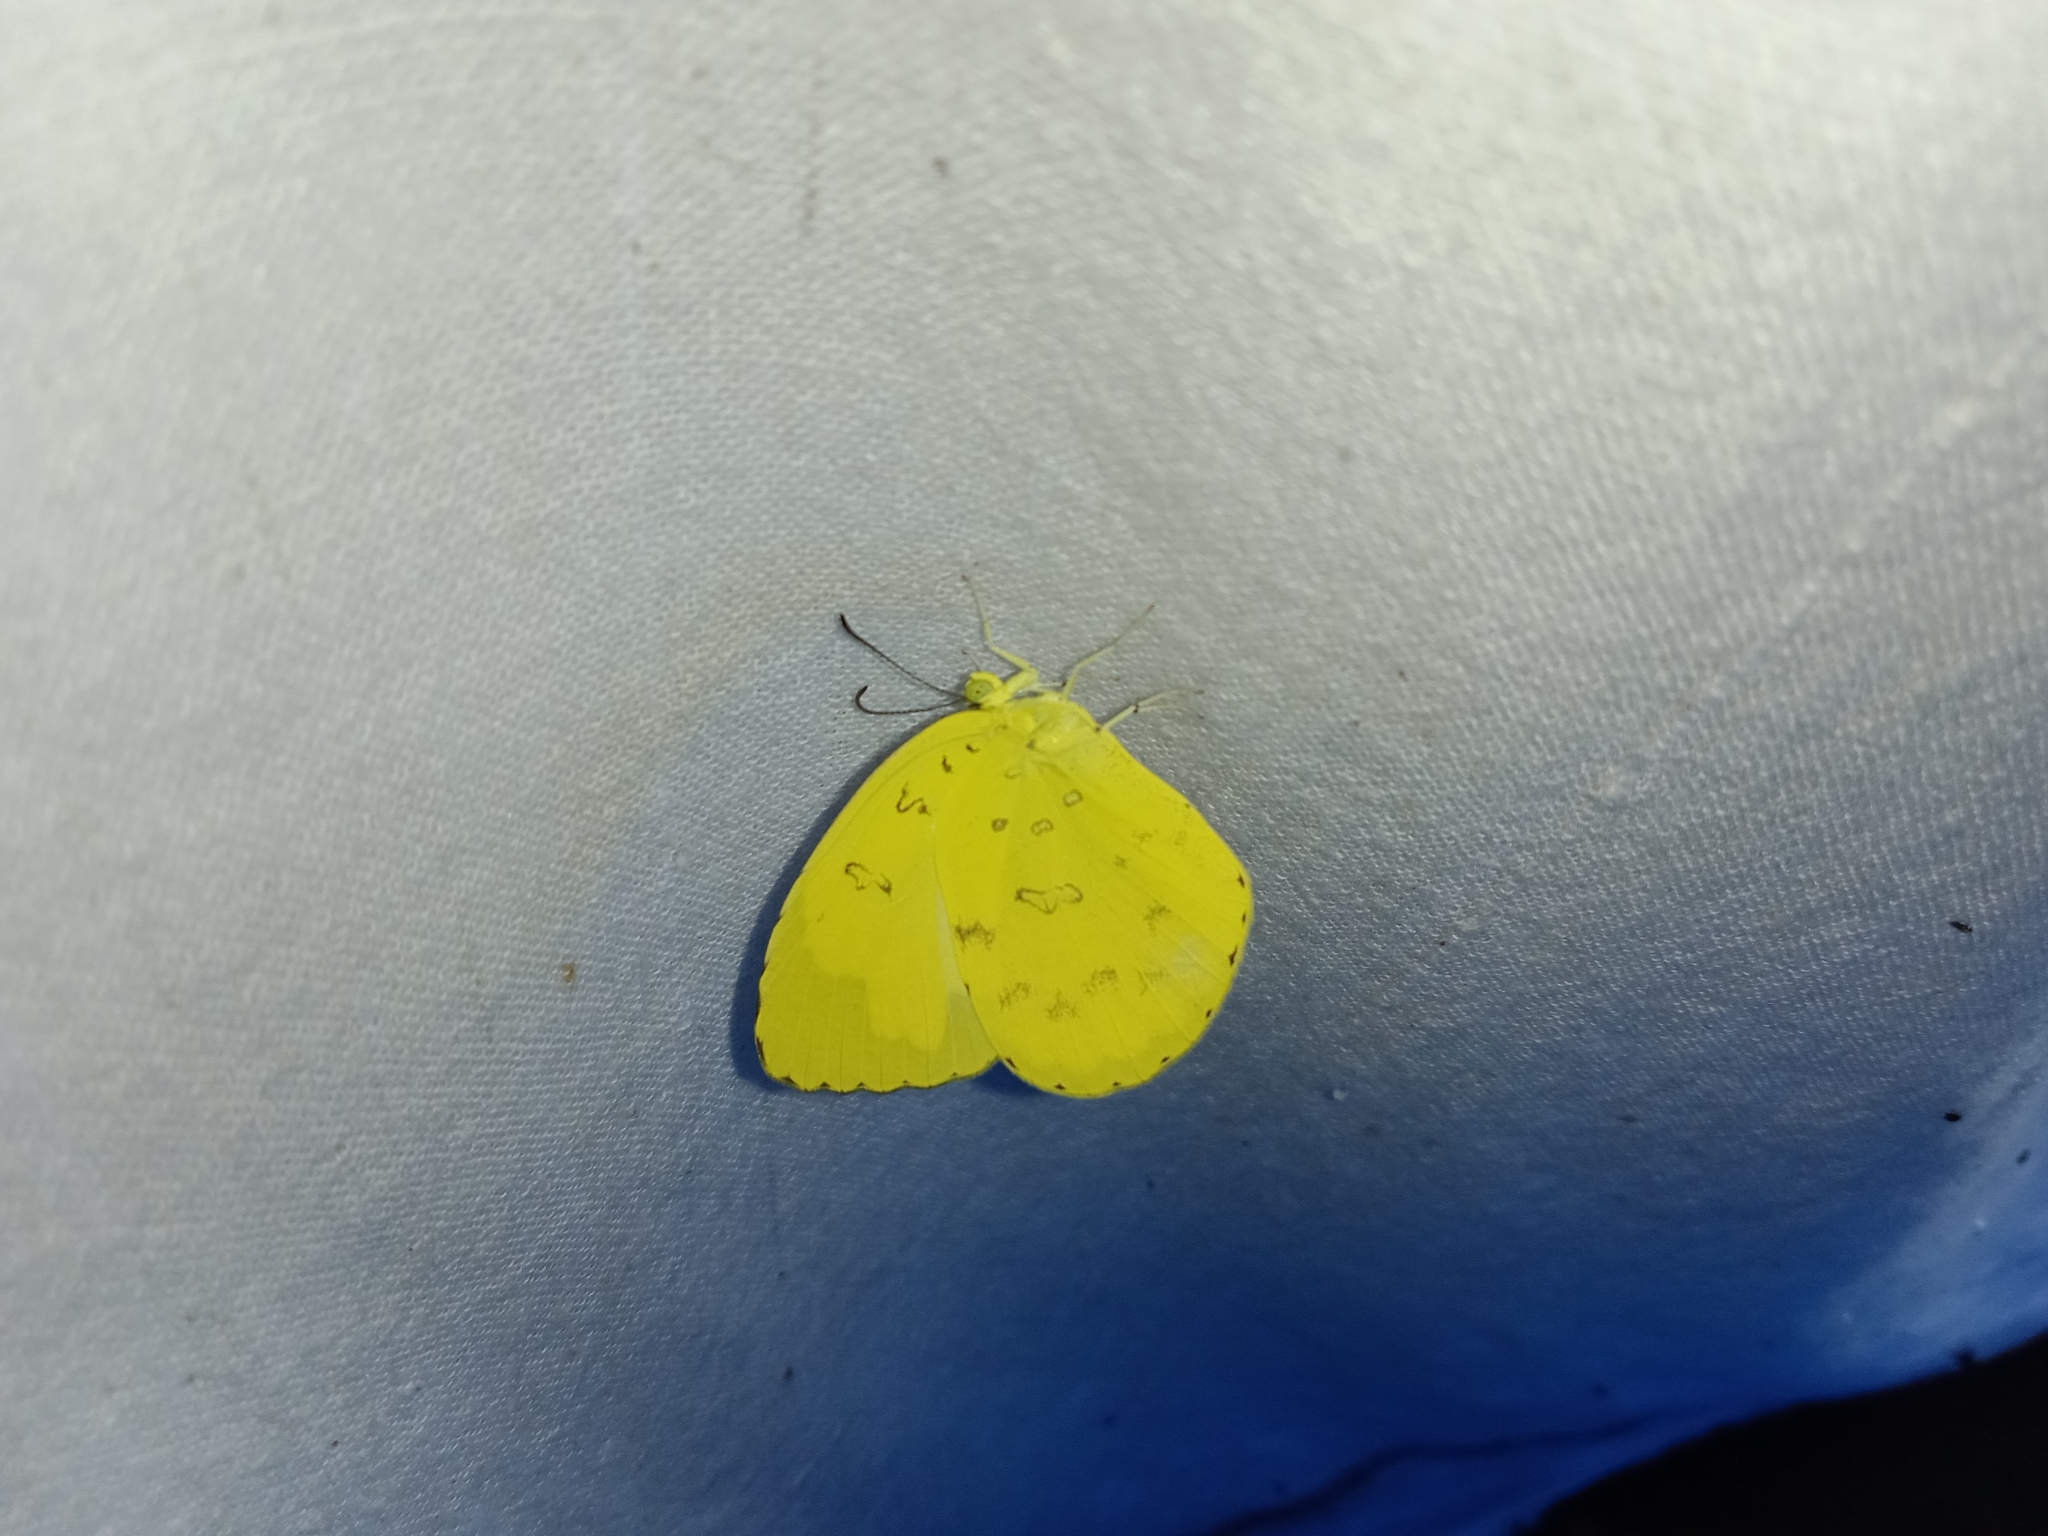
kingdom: Animalia
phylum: Arthropoda
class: Insecta
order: Lepidoptera
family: Pieridae
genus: Eurema
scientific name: Eurema blanda
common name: Three-spot grass yellow
